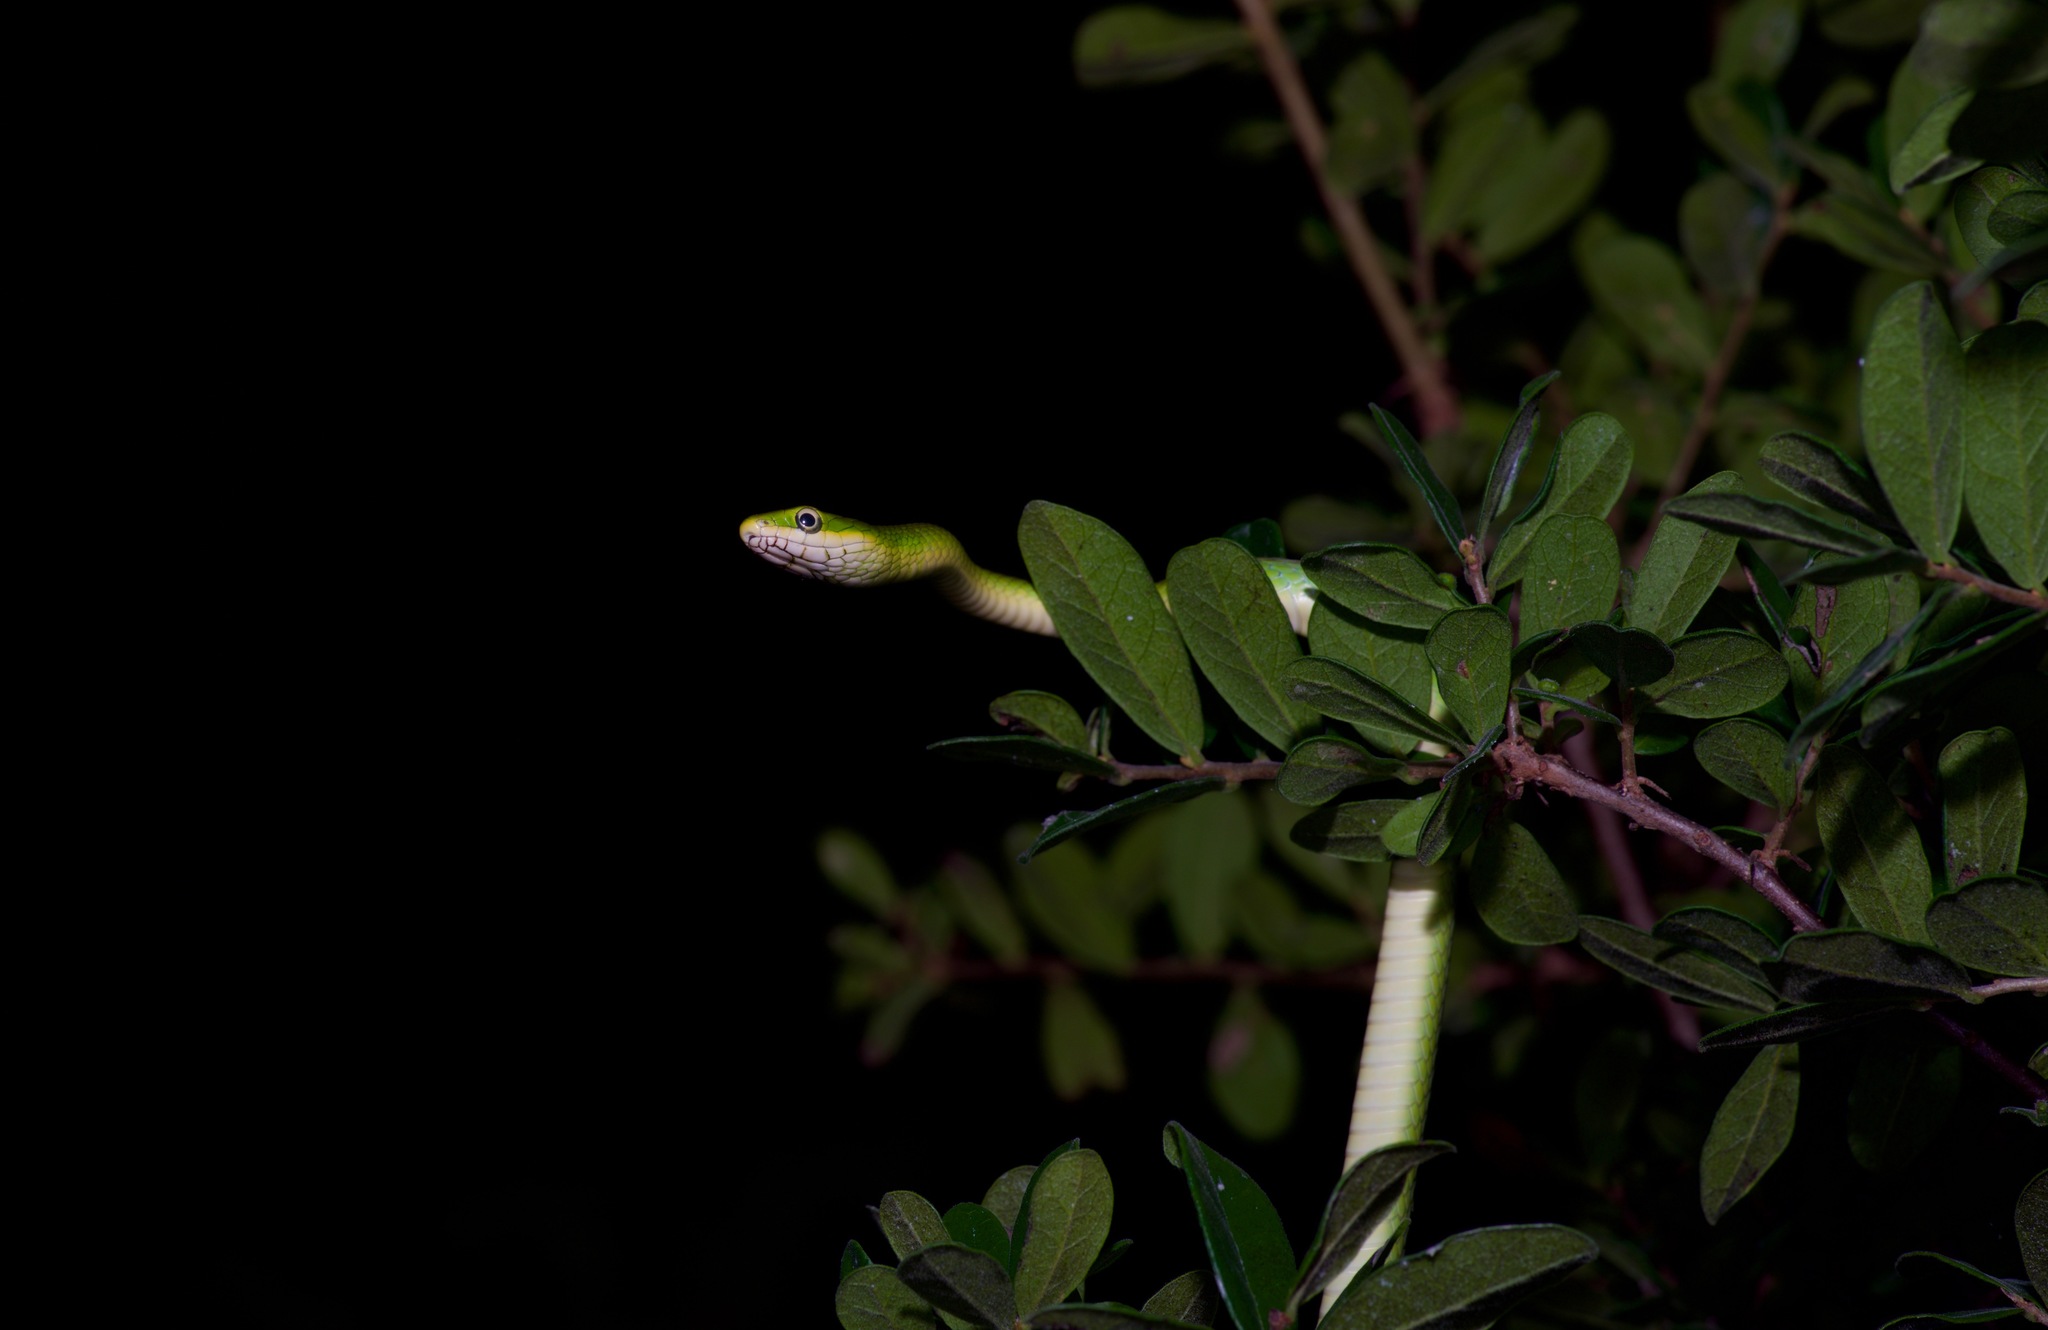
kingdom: Animalia
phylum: Chordata
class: Squamata
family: Colubridae
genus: Opheodrys
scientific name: Opheodrys aestivus
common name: Rough greensnake
